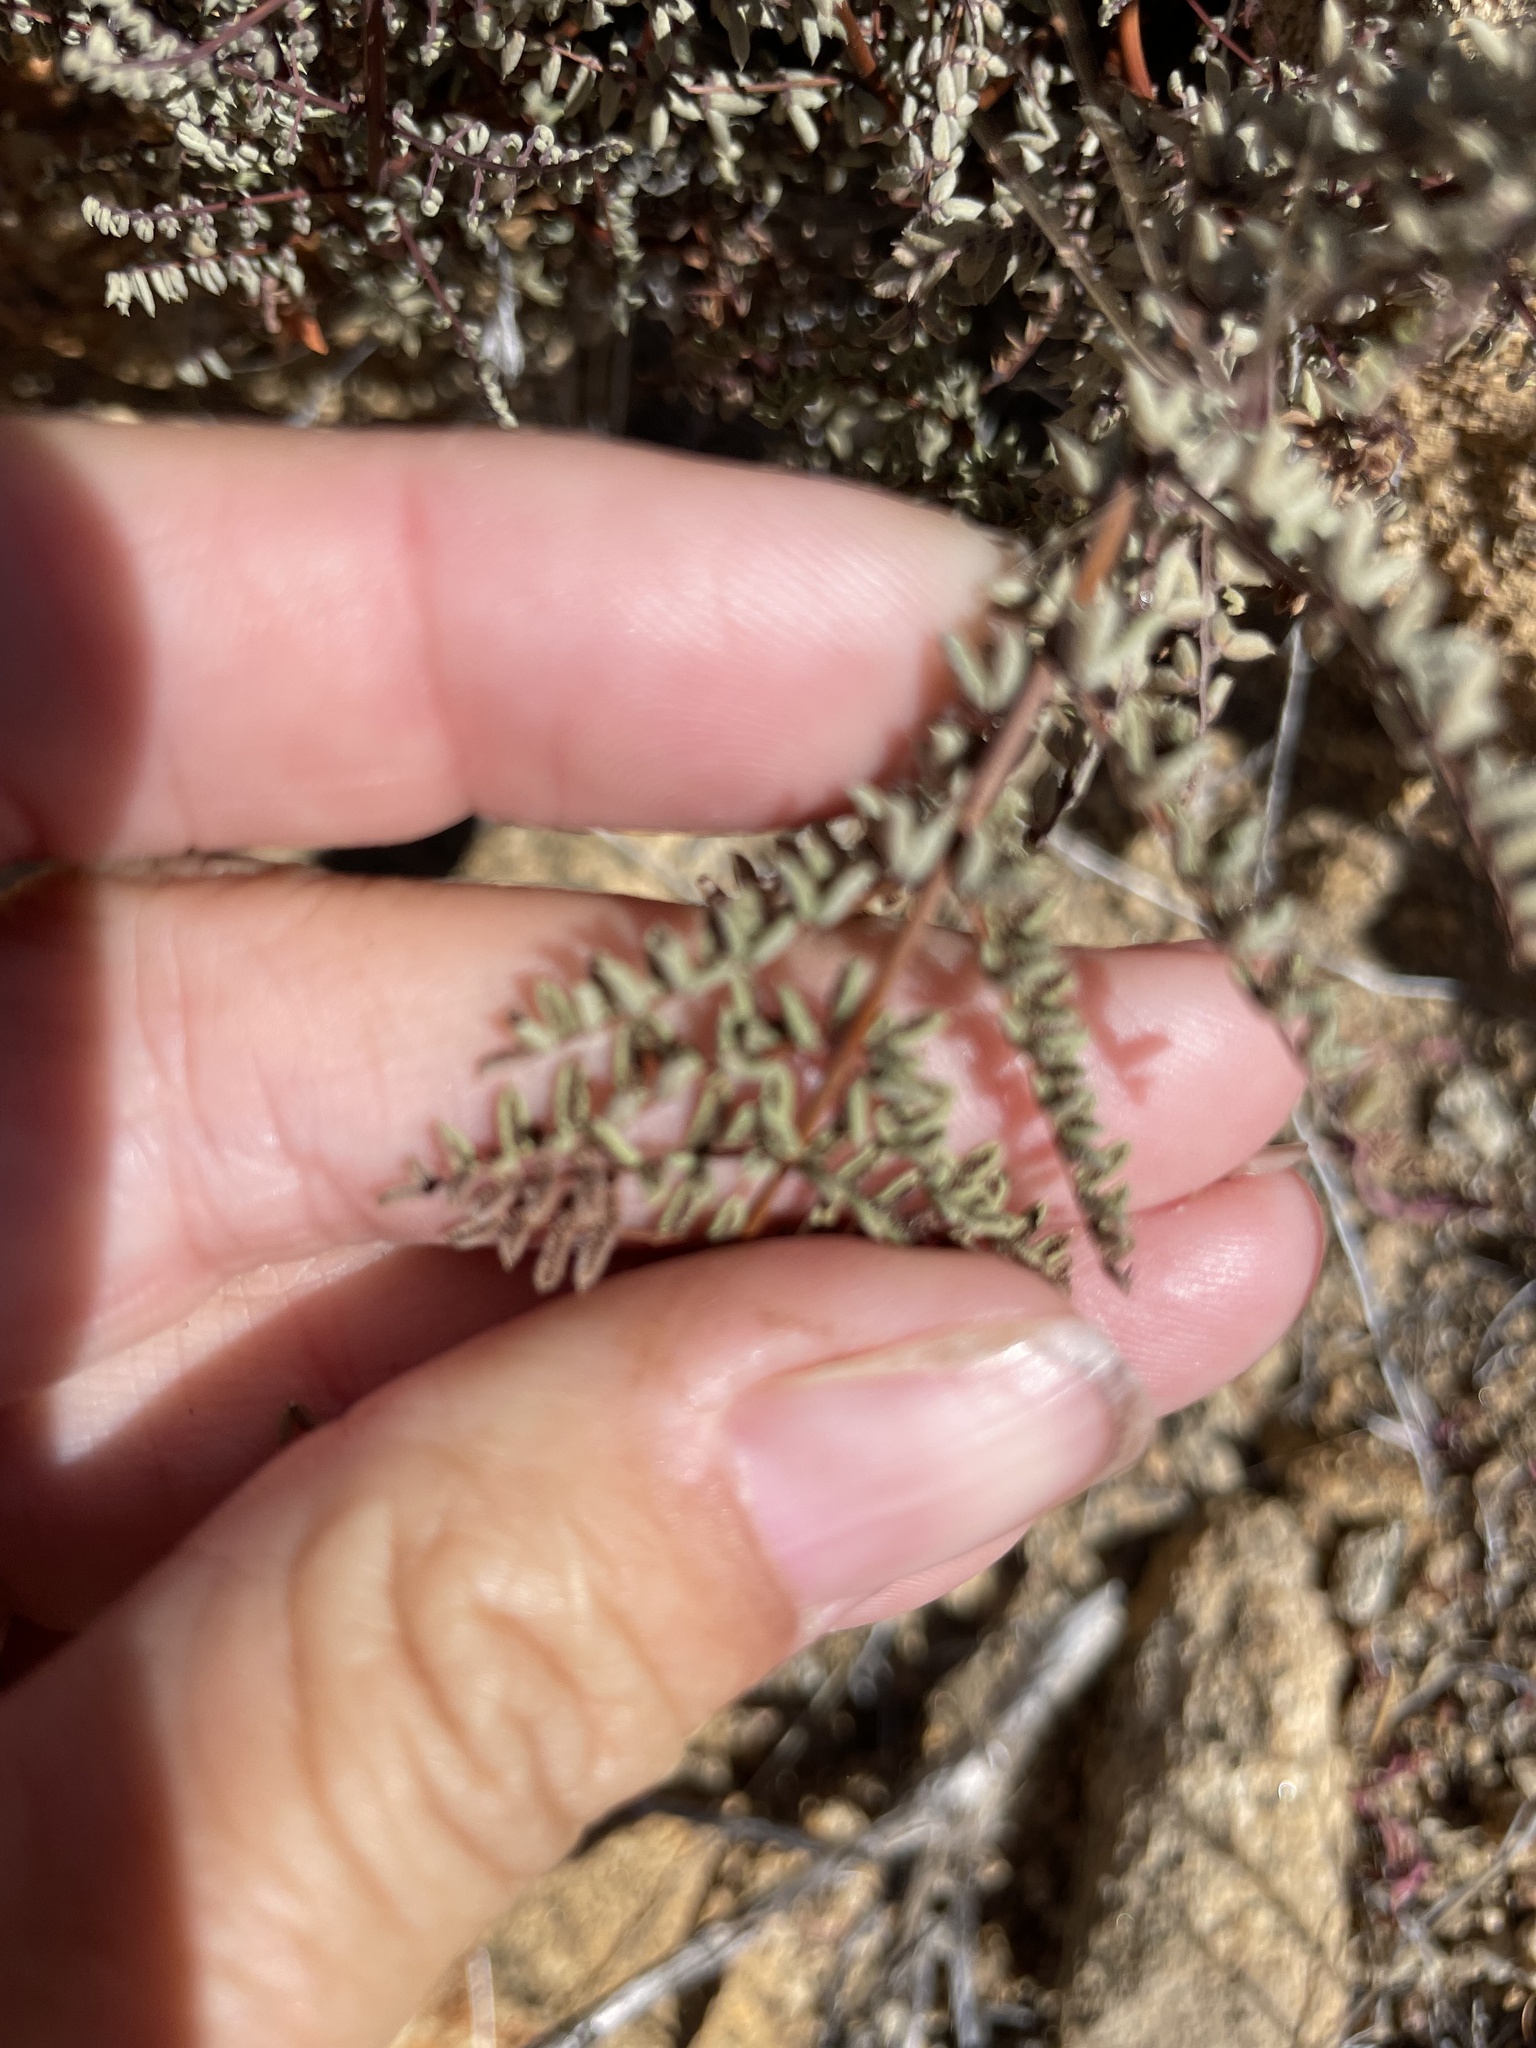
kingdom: Plantae
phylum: Tracheophyta
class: Polypodiopsida
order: Polypodiales
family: Pteridaceae
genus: Pellaea
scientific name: Pellaea mucronata
